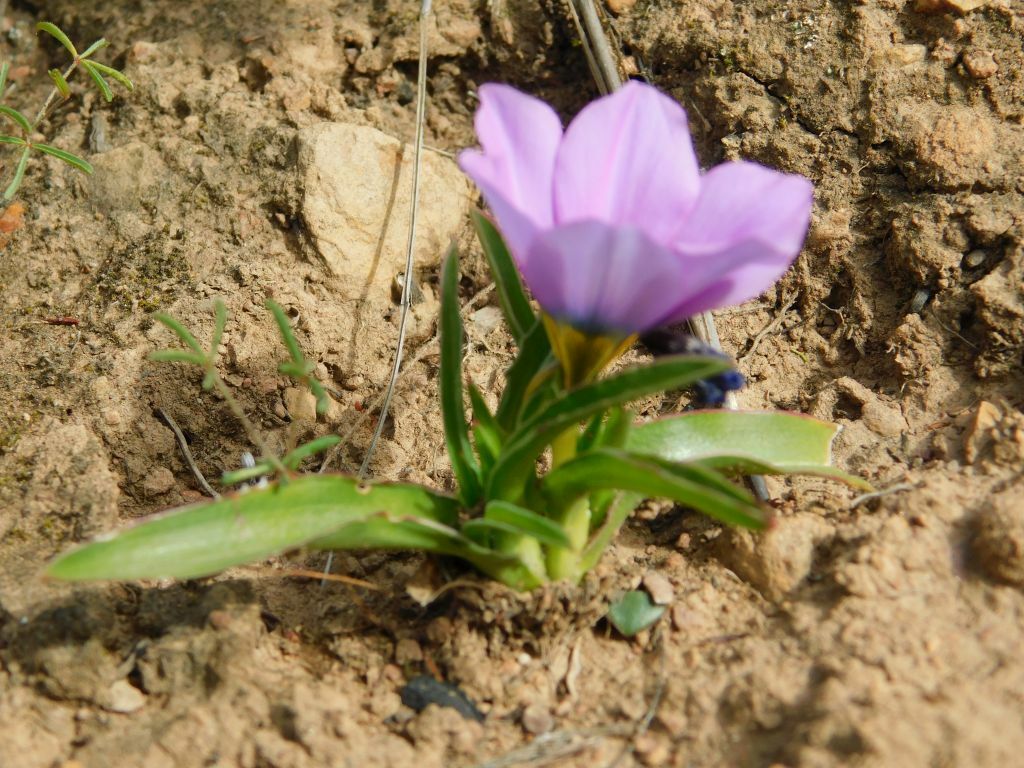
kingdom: Plantae
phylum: Tracheophyta
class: Liliopsida
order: Asparagales
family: Iridaceae
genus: Moraea
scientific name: Moraea barnardiella
